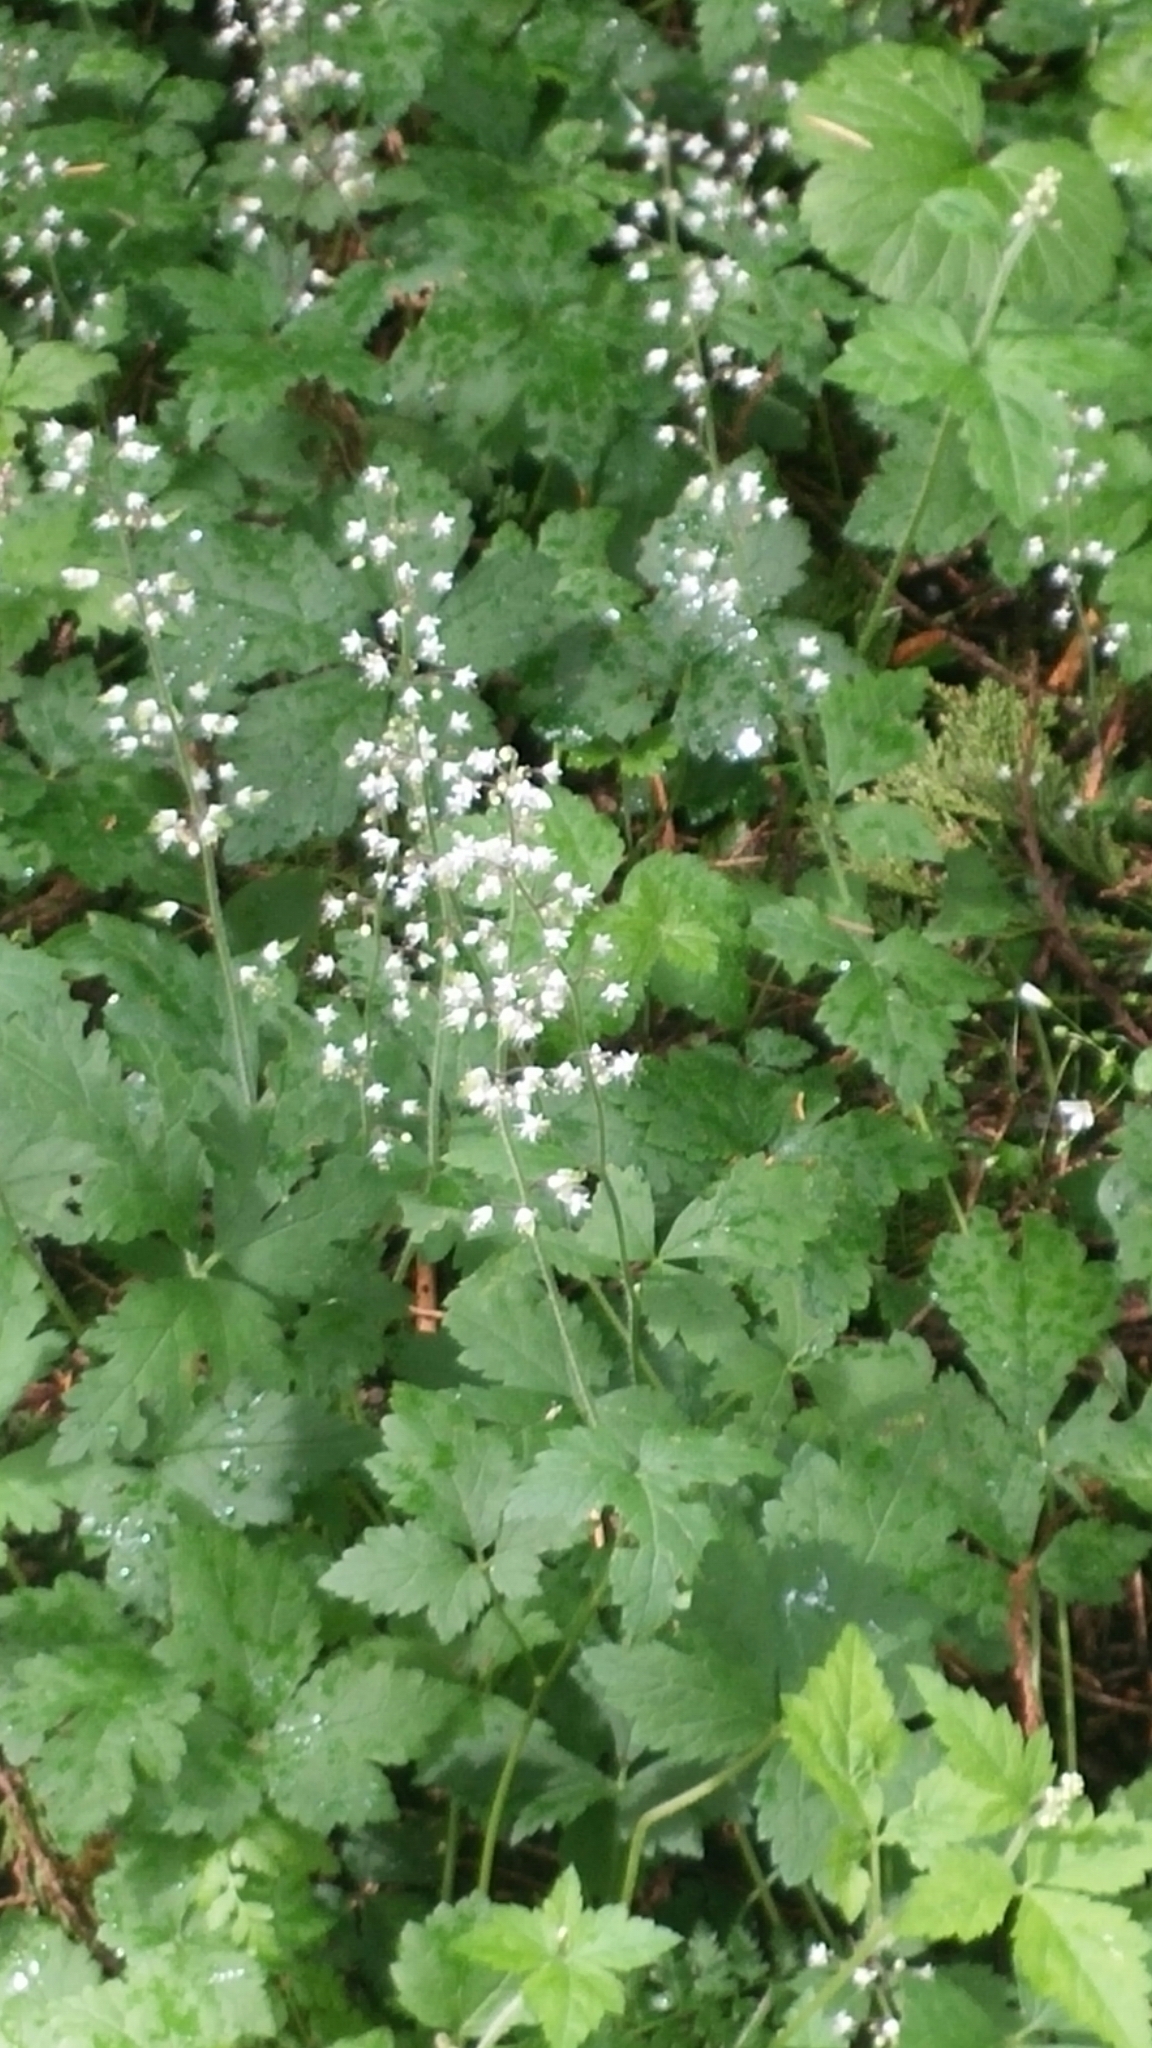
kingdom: Plantae
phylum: Tracheophyta
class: Magnoliopsida
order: Saxifragales
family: Saxifragaceae
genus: Tiarella
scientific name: Tiarella trifoliata
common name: Sugar-scoop
